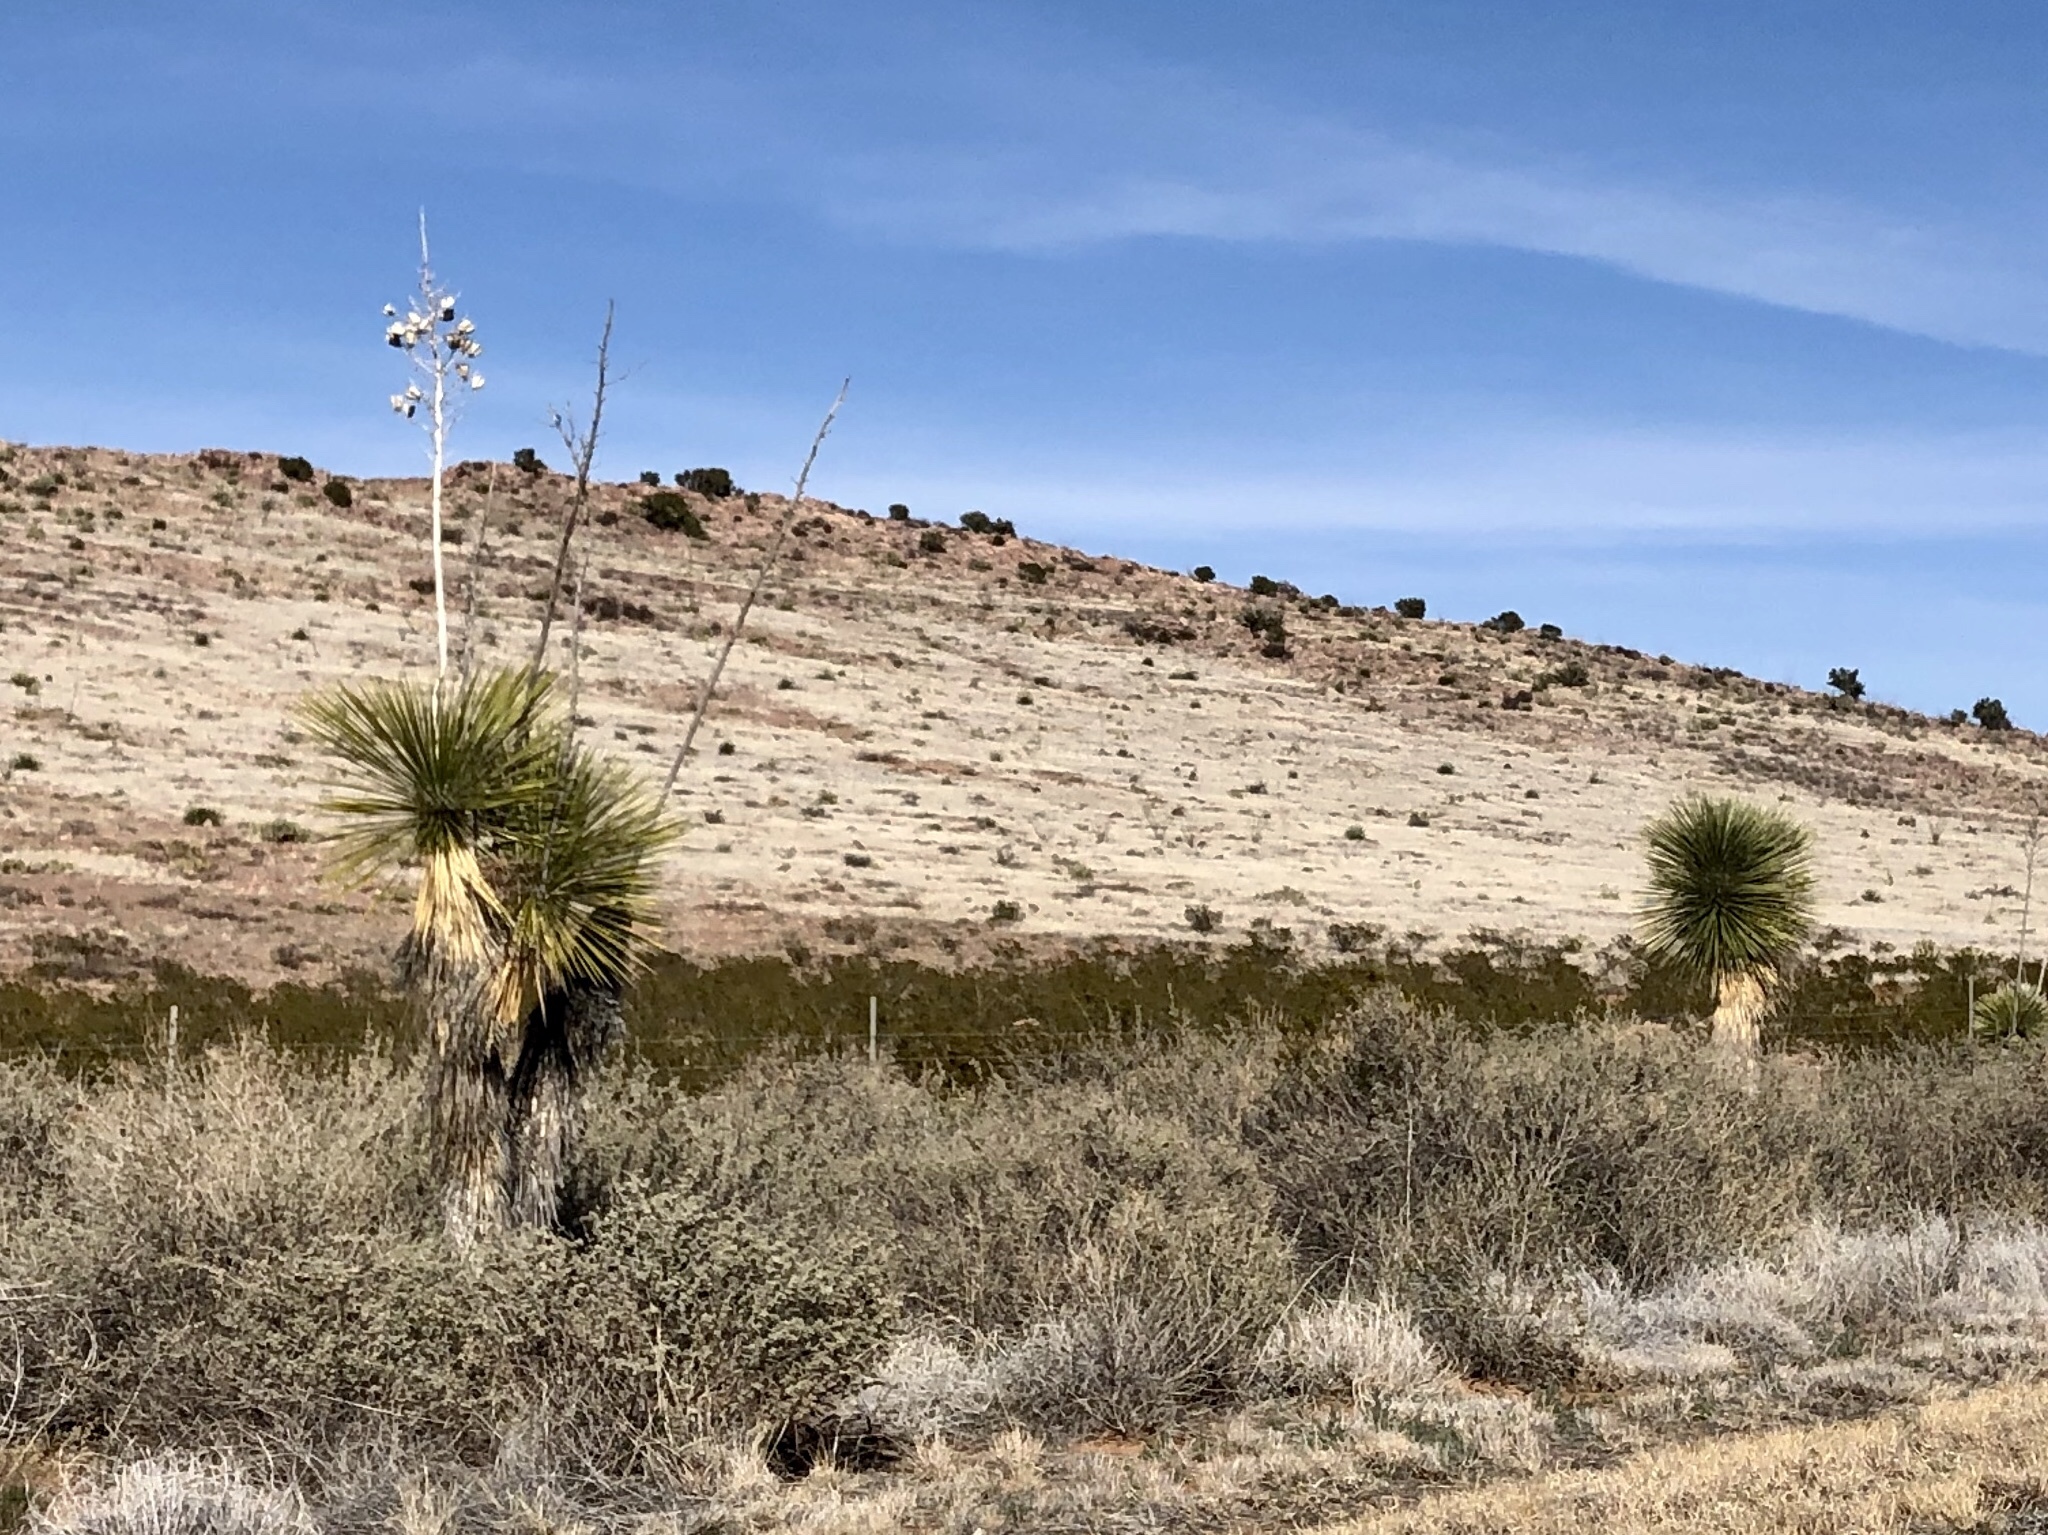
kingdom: Plantae
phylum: Tracheophyta
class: Liliopsida
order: Asparagales
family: Asparagaceae
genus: Yucca
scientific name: Yucca elata
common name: Palmella
